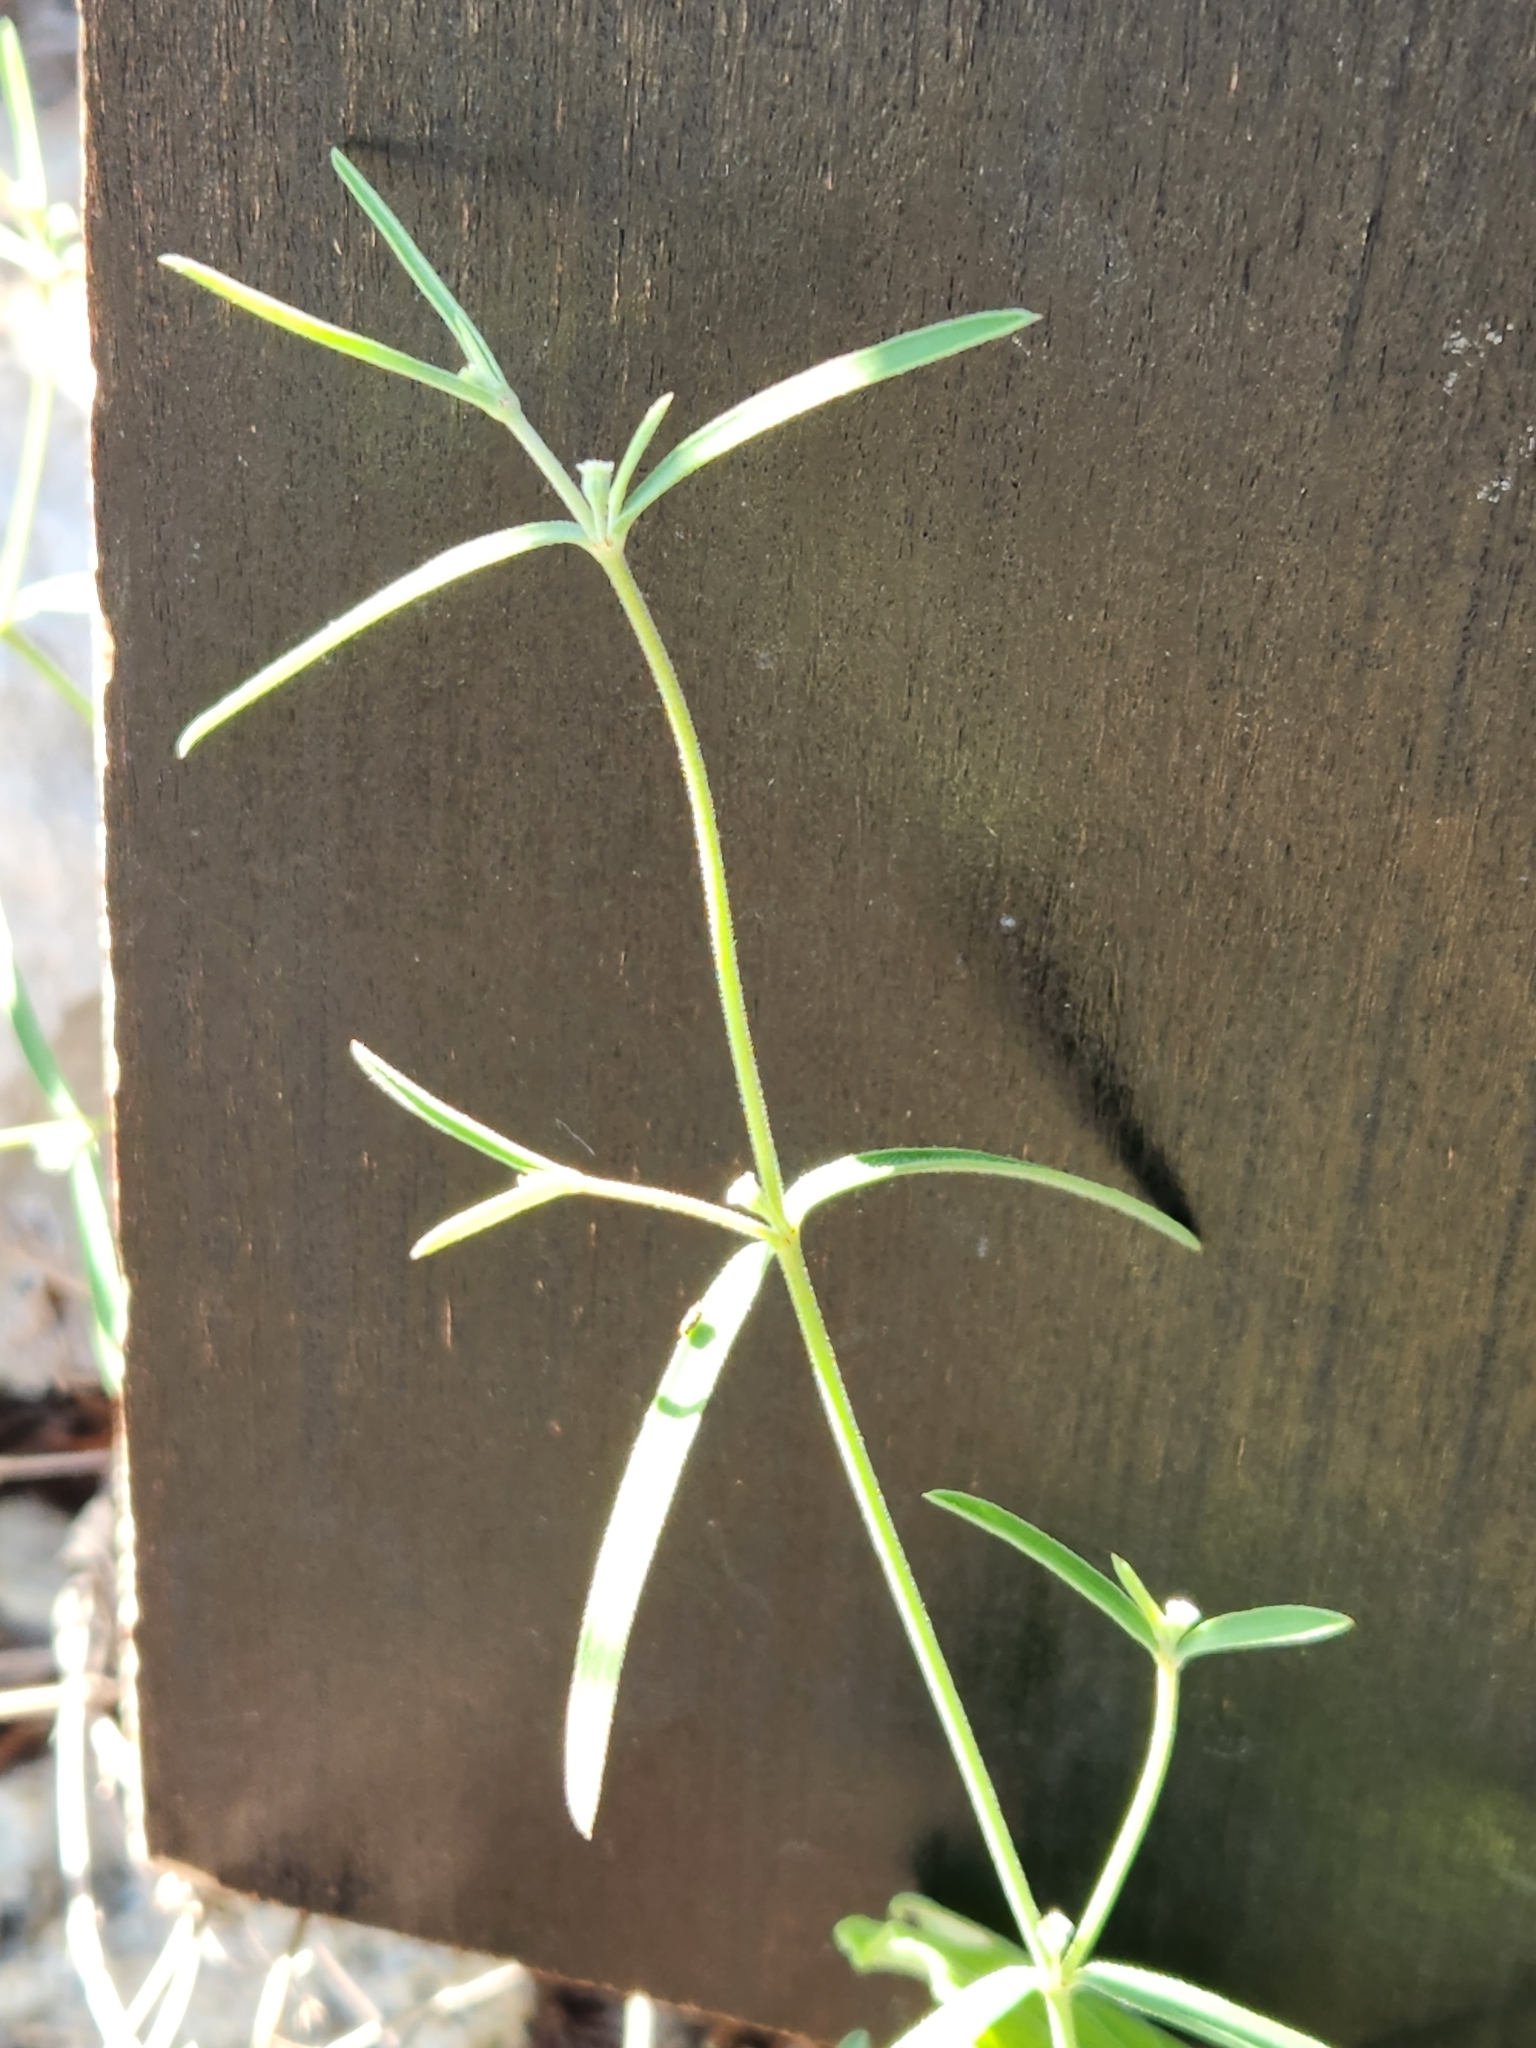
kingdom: Plantae
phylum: Tracheophyta
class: Magnoliopsida
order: Malpighiales
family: Euphorbiaceae
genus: Euphorbia
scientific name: Euphorbia angusta
